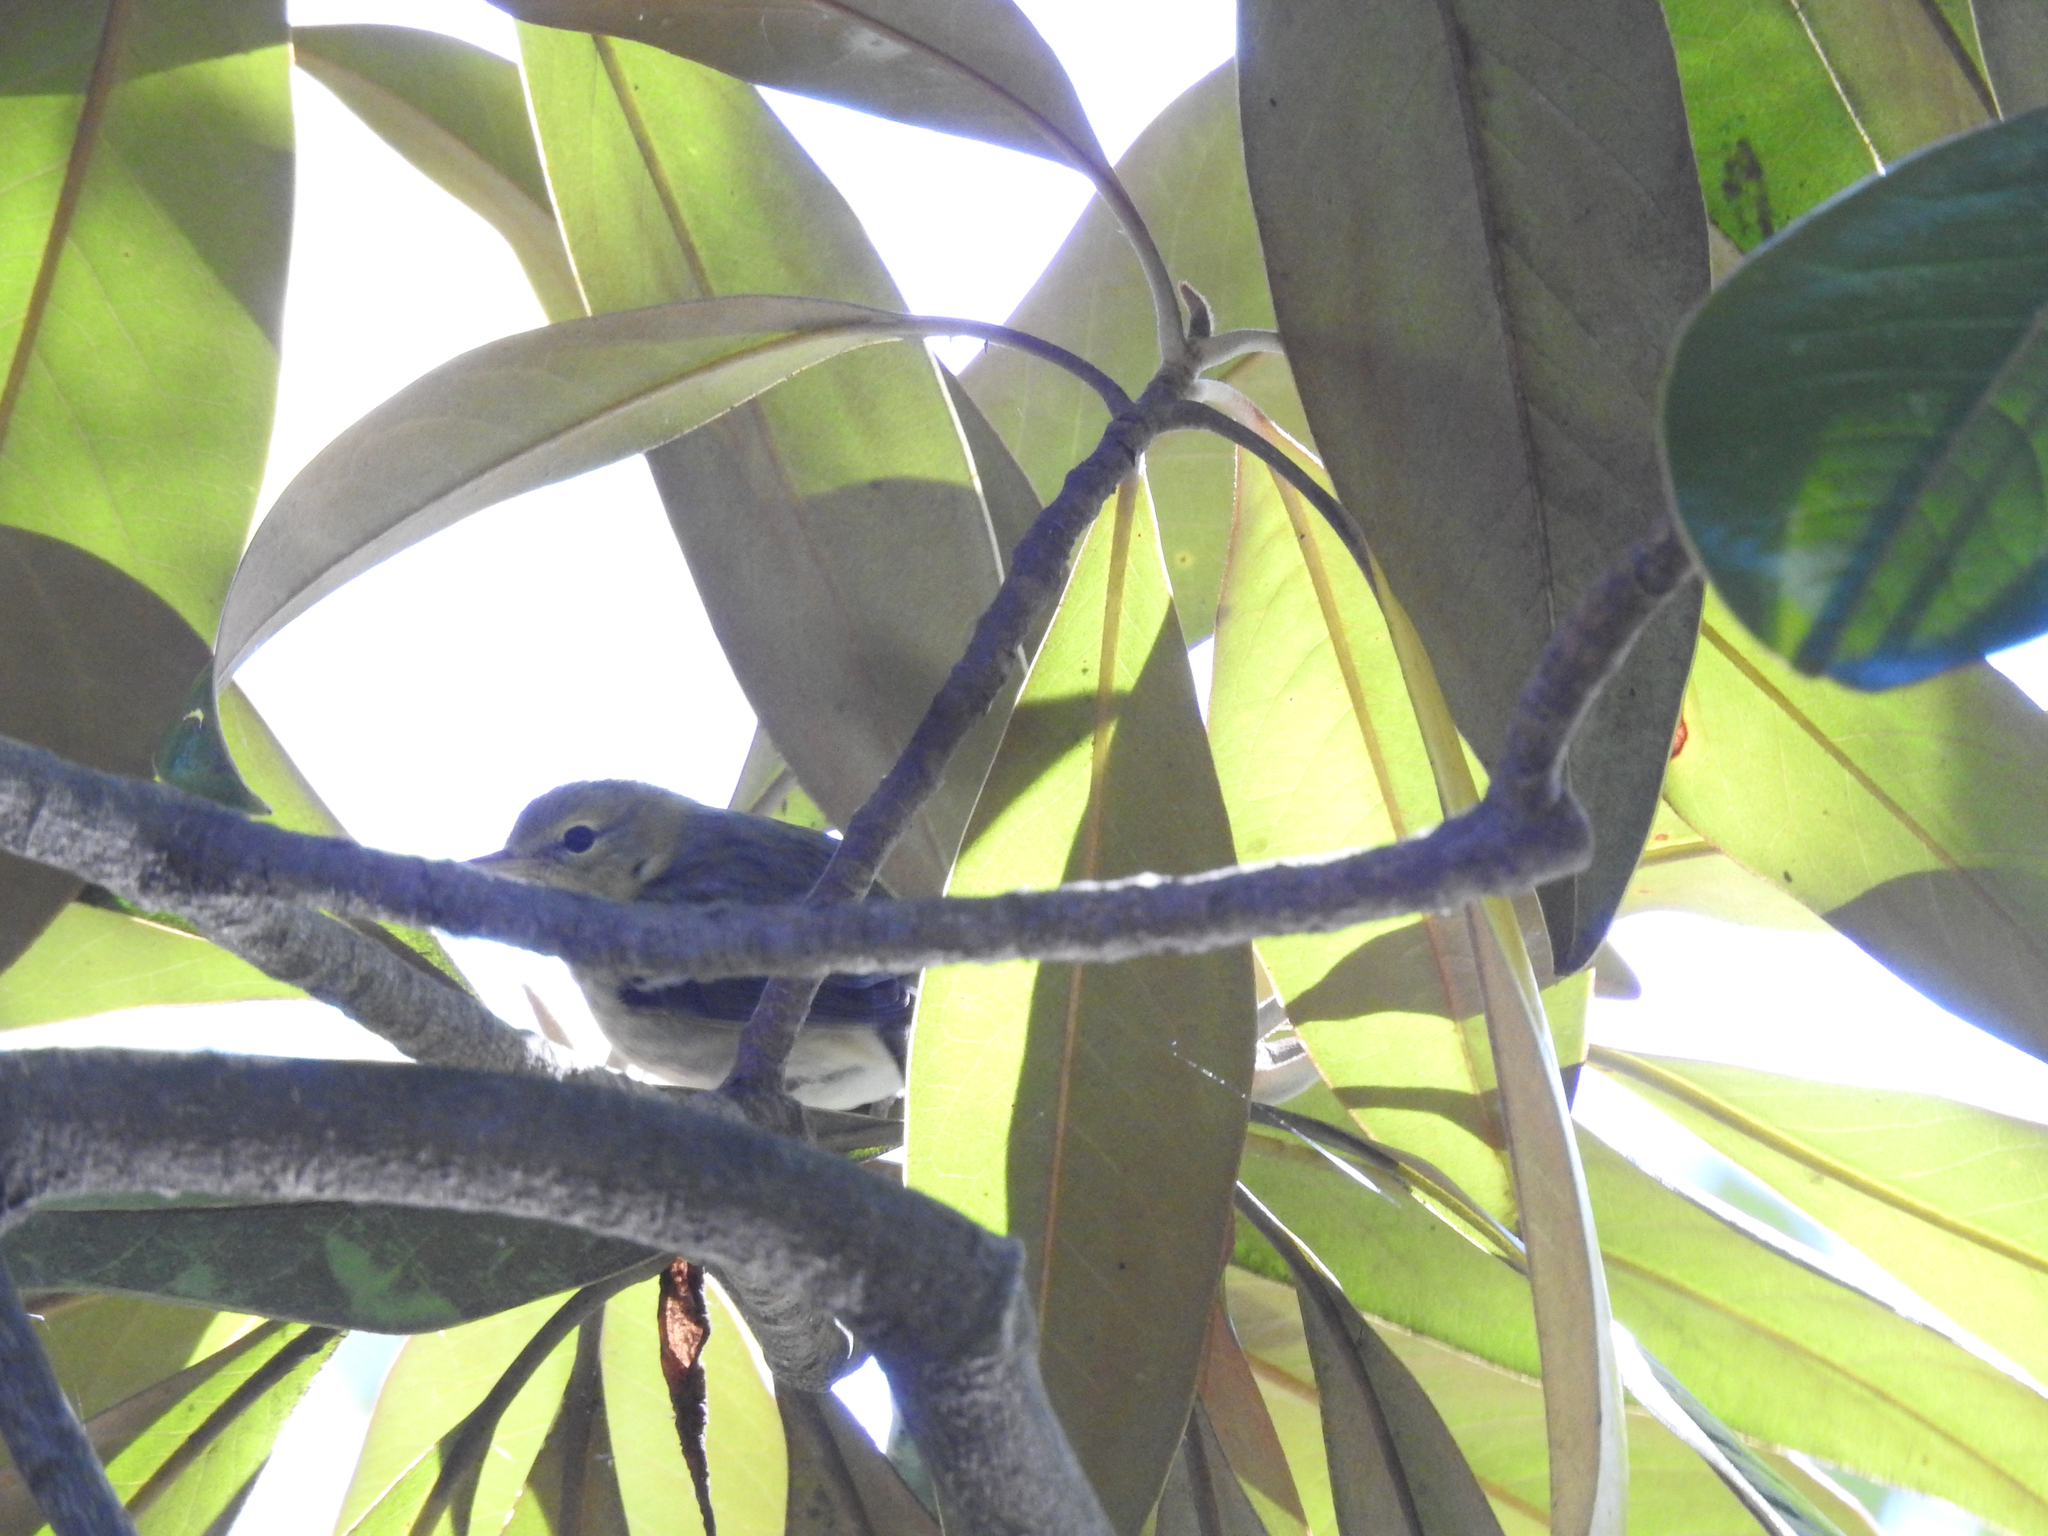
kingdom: Animalia
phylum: Chordata
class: Aves
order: Passeriformes
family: Parulidae
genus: Setophaga
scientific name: Setophaga castanea
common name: Bay-breasted warbler
